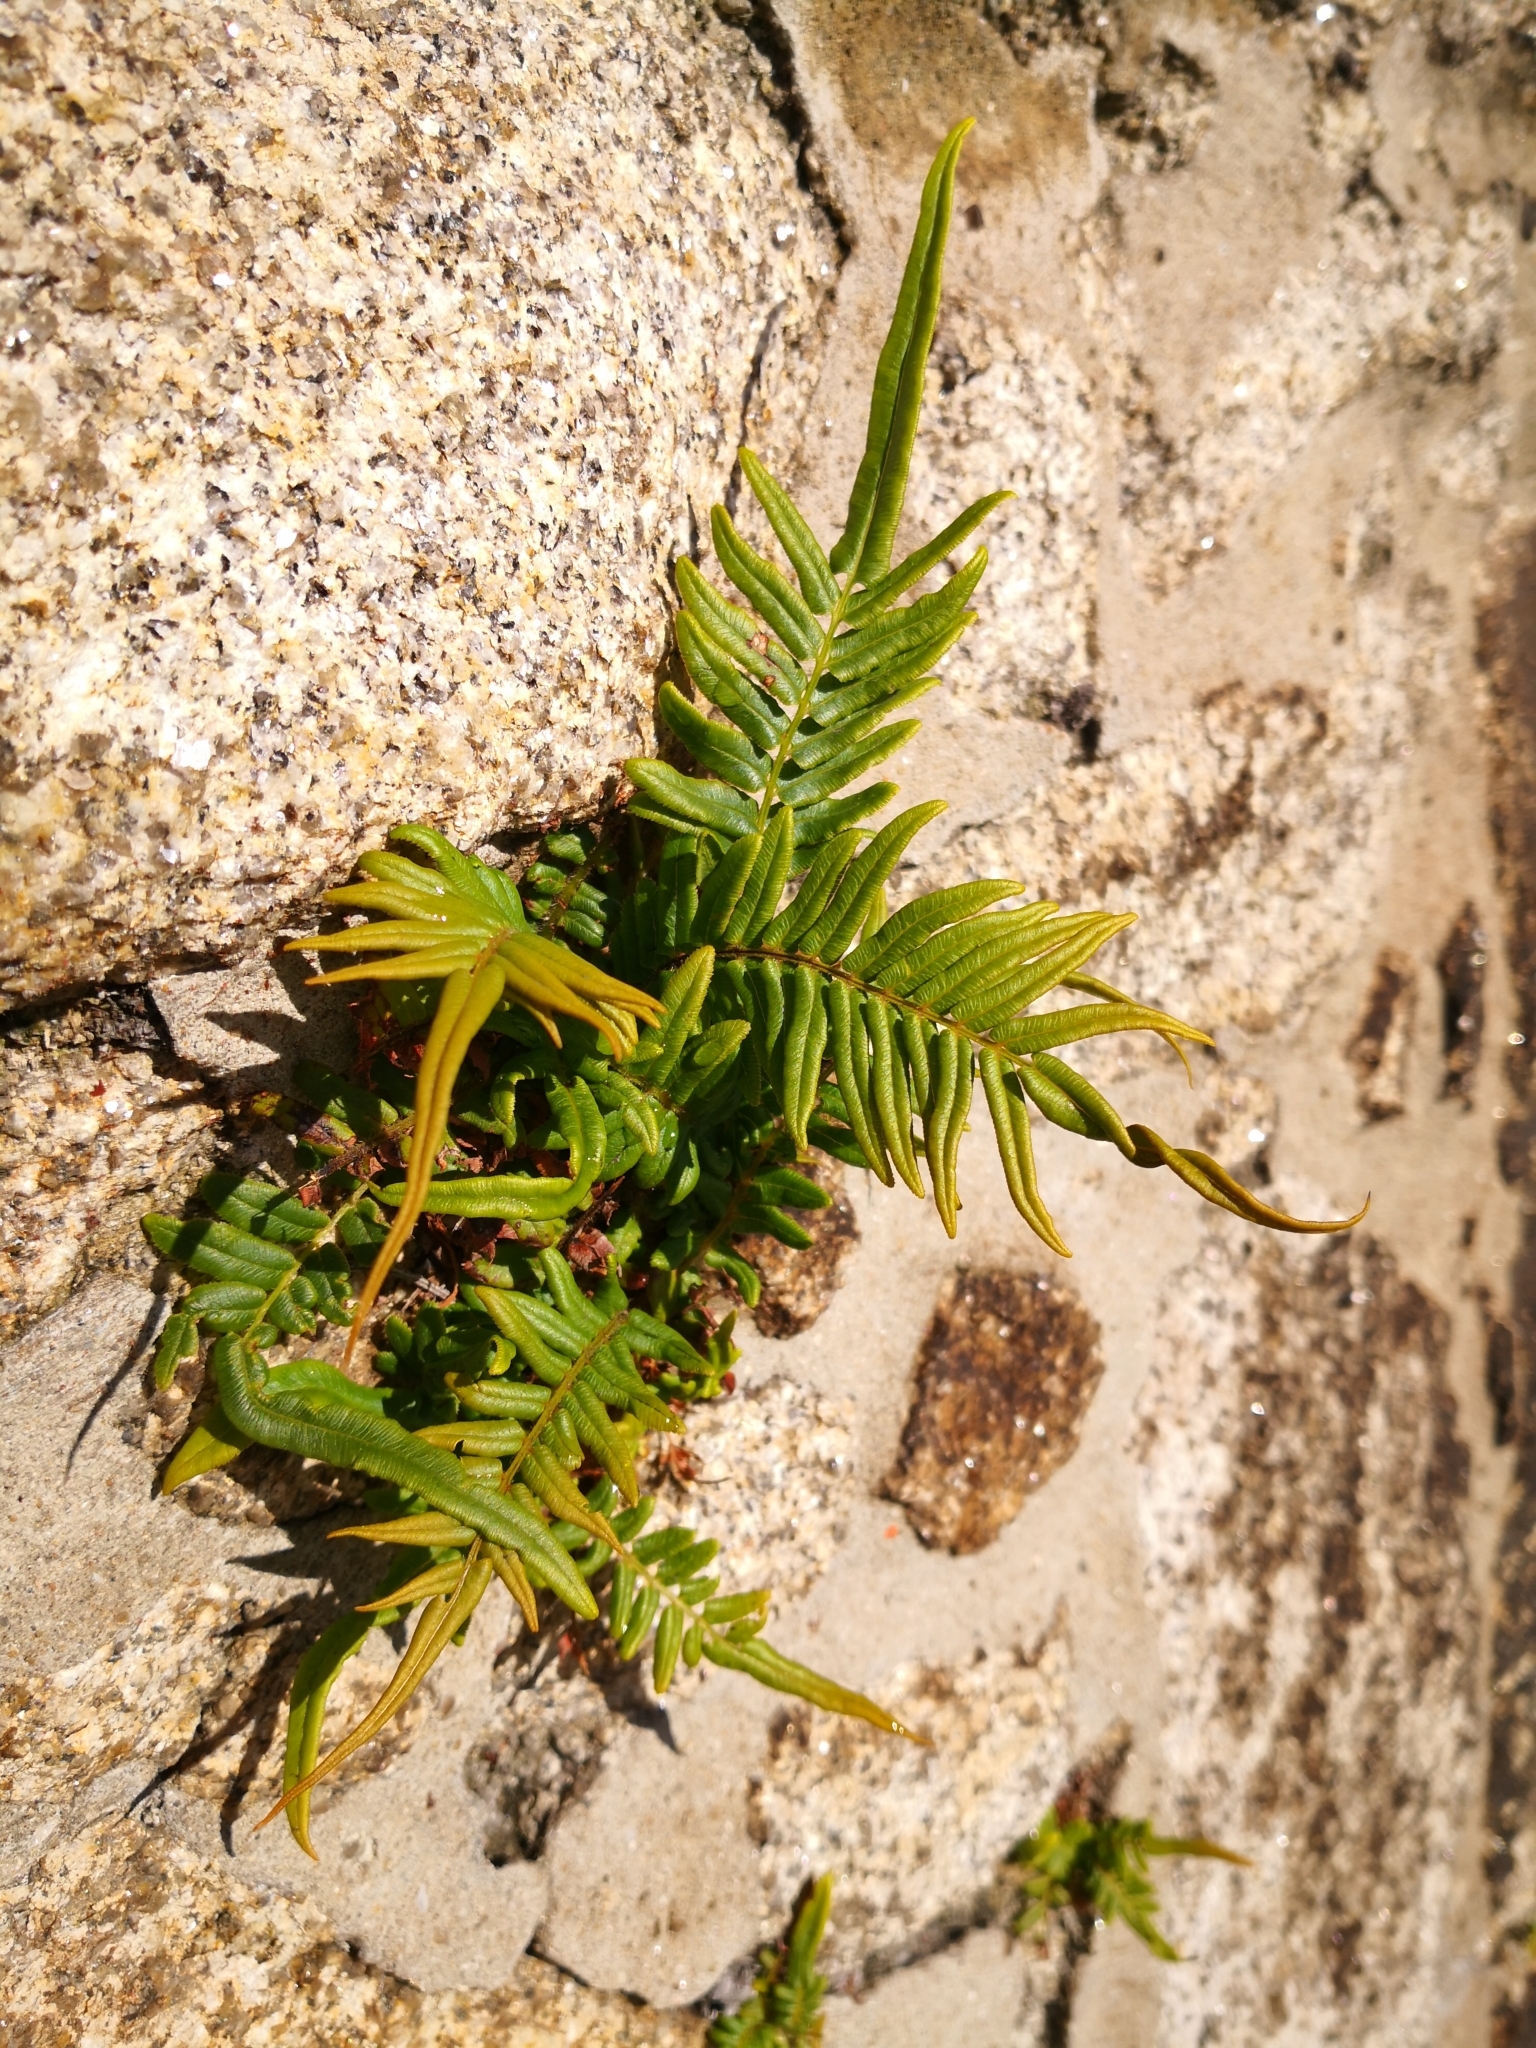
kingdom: Plantae
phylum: Tracheophyta
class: Polypodiopsida
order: Polypodiales
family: Pteridaceae
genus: Pteris
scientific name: Pteris vittata
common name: Ladder brake
